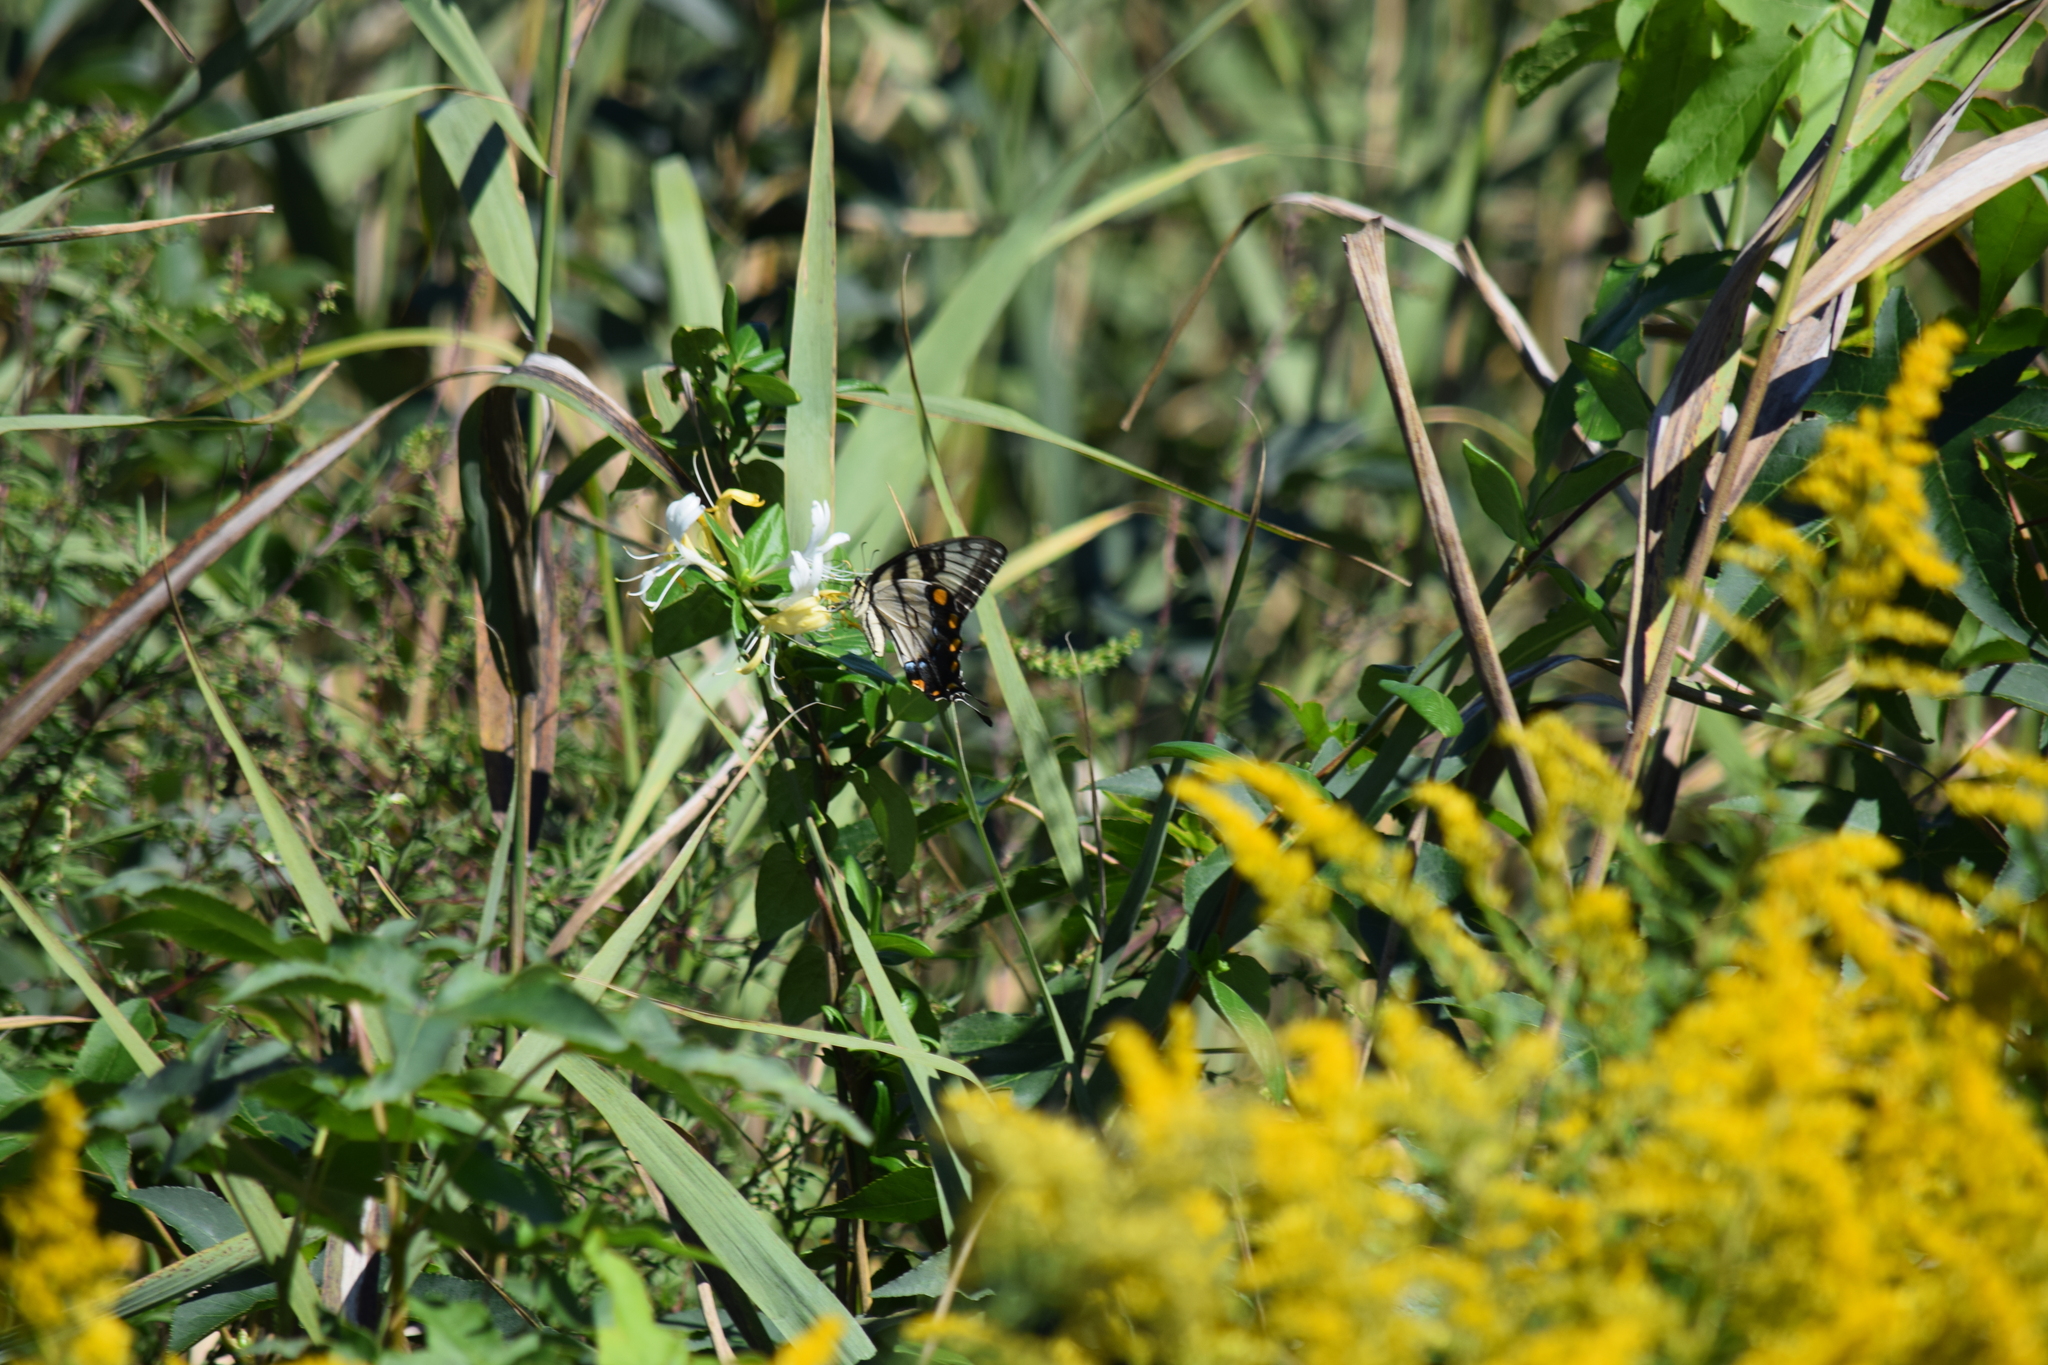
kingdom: Animalia
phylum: Arthropoda
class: Insecta
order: Lepidoptera
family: Papilionidae
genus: Papilio
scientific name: Papilio glaucus
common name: Tiger swallowtail
